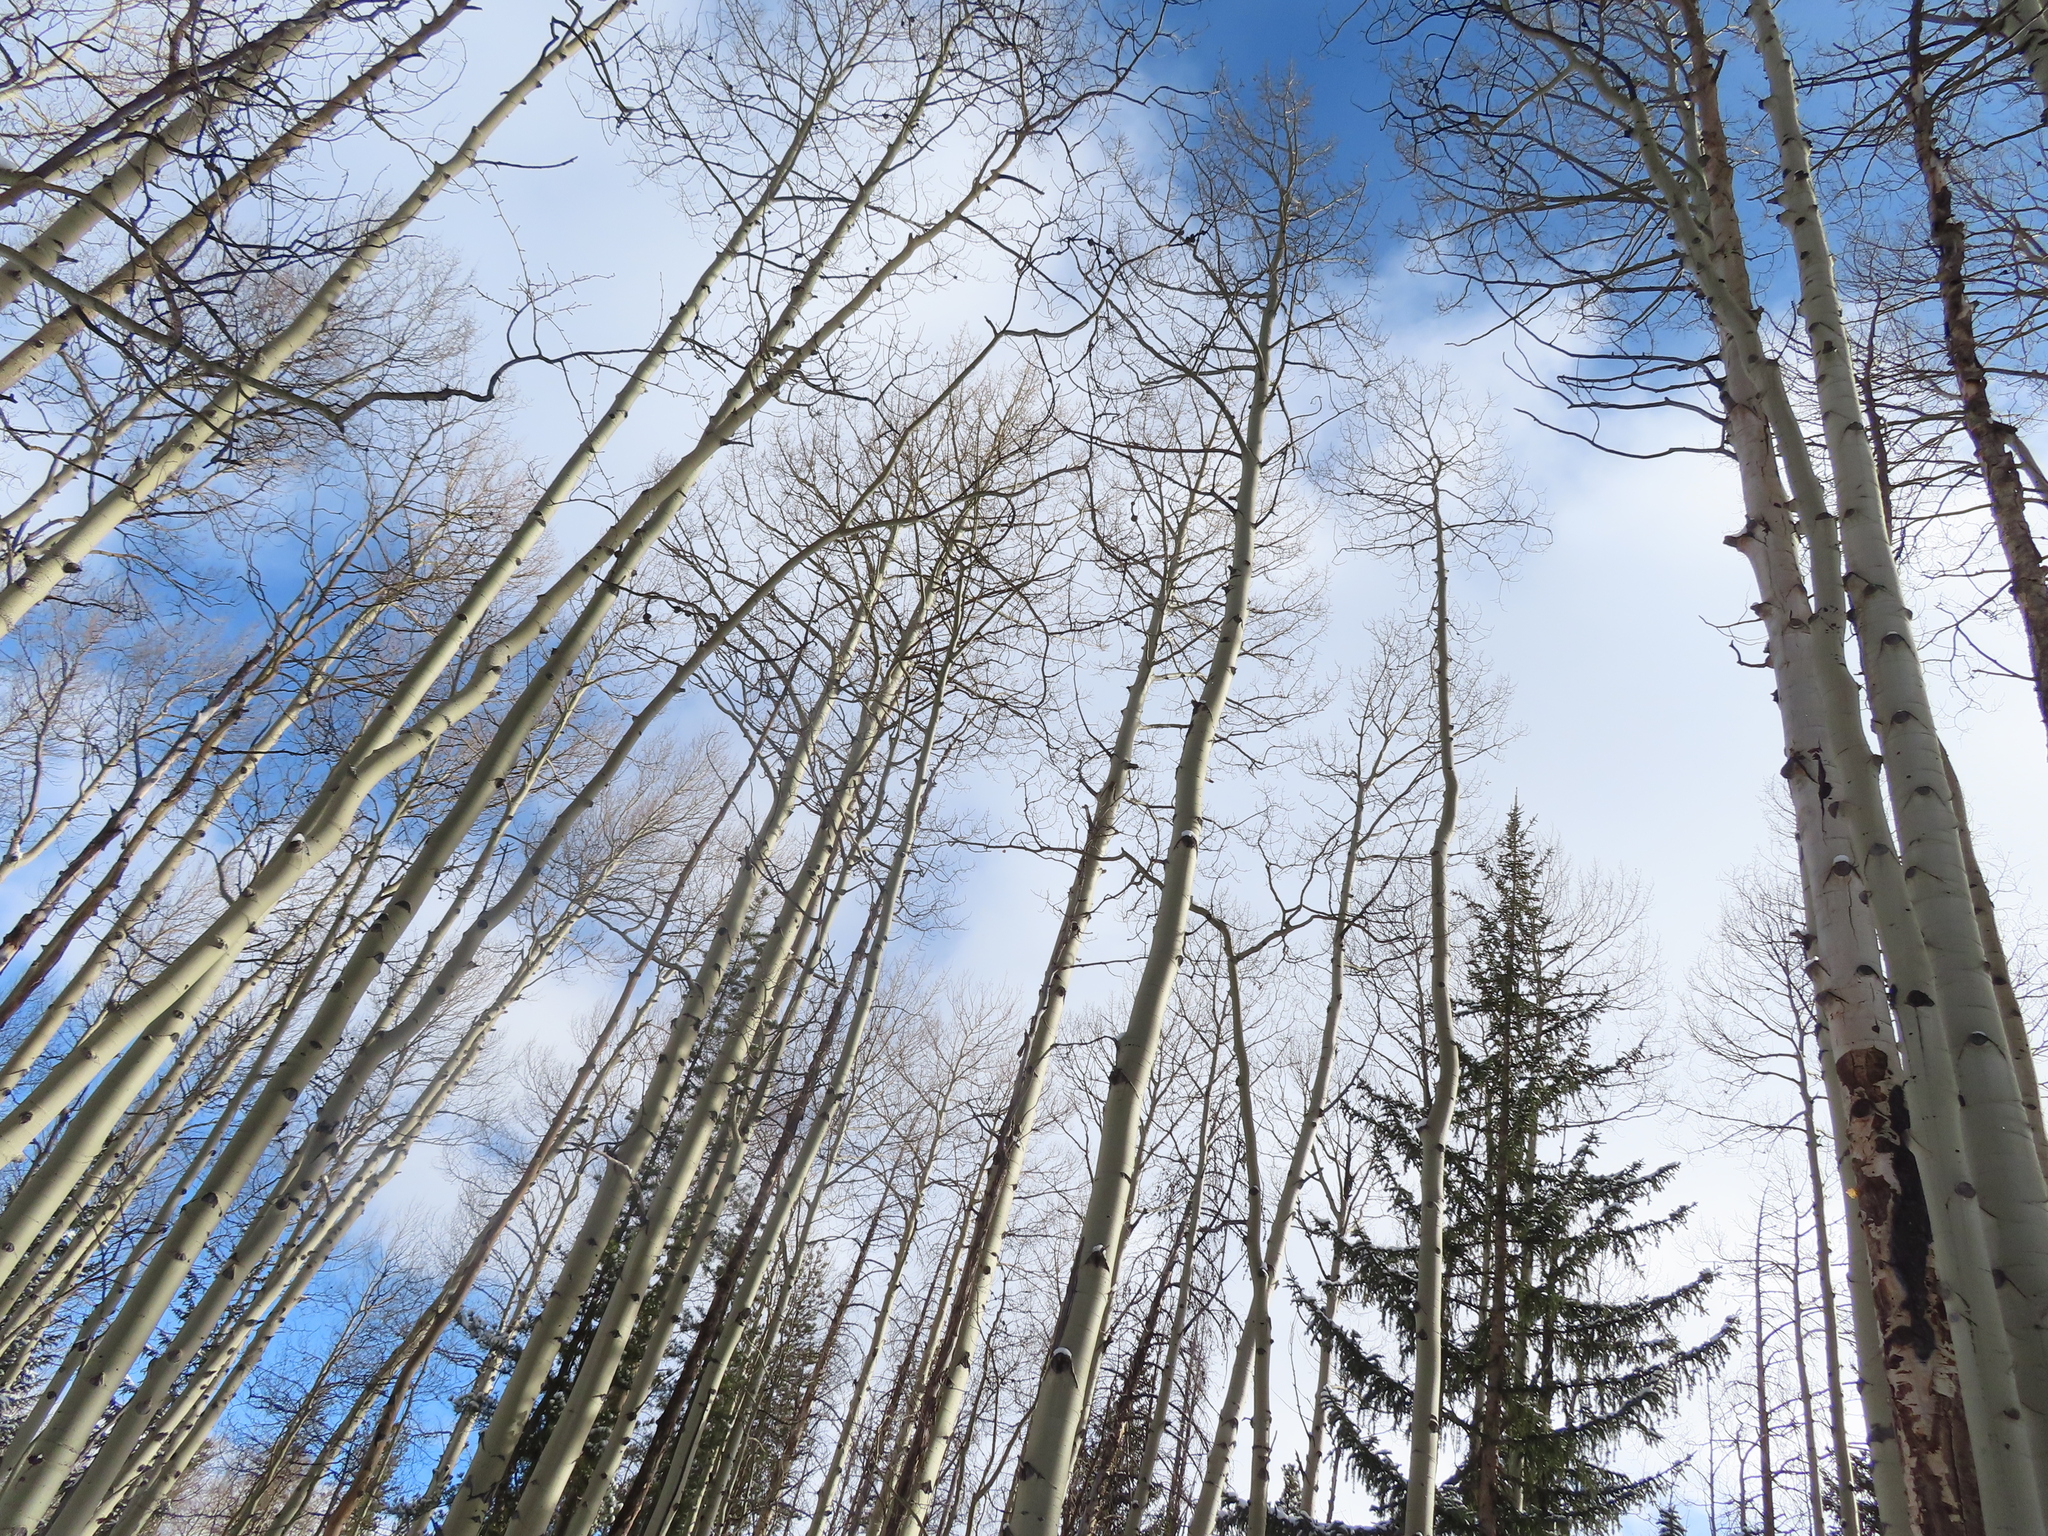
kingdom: Plantae
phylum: Tracheophyta
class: Magnoliopsida
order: Malpighiales
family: Salicaceae
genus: Populus
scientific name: Populus tremuloides
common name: Quaking aspen
